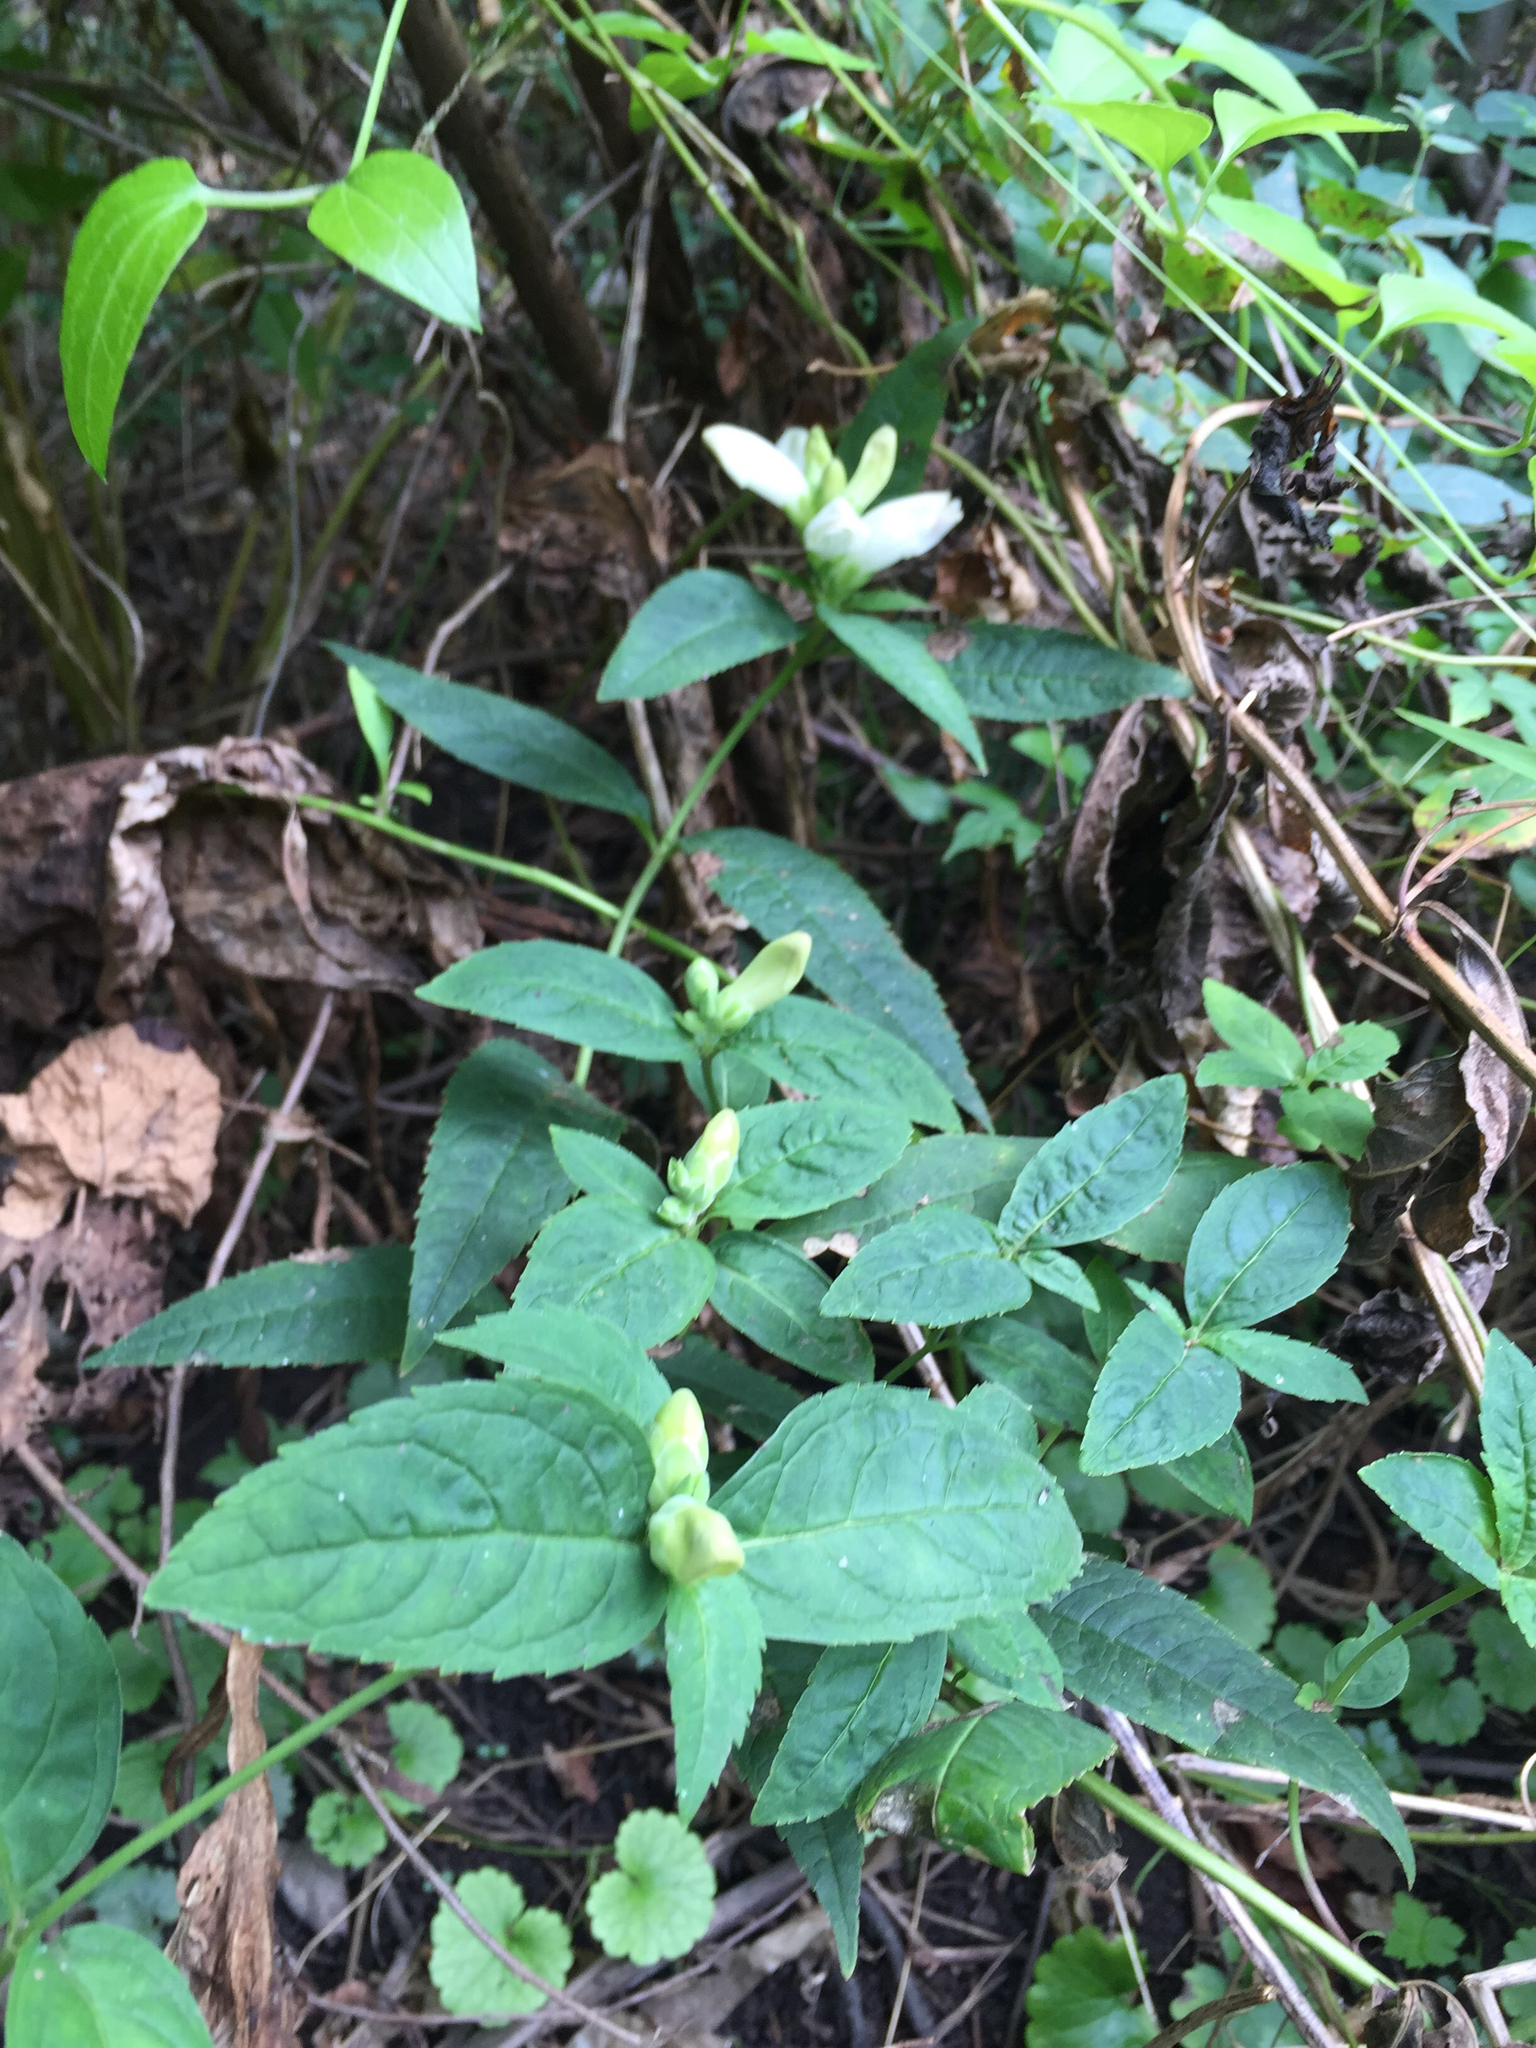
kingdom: Plantae
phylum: Tracheophyta
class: Magnoliopsida
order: Lamiales
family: Plantaginaceae
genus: Chelone
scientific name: Chelone glabra
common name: Snakehead
